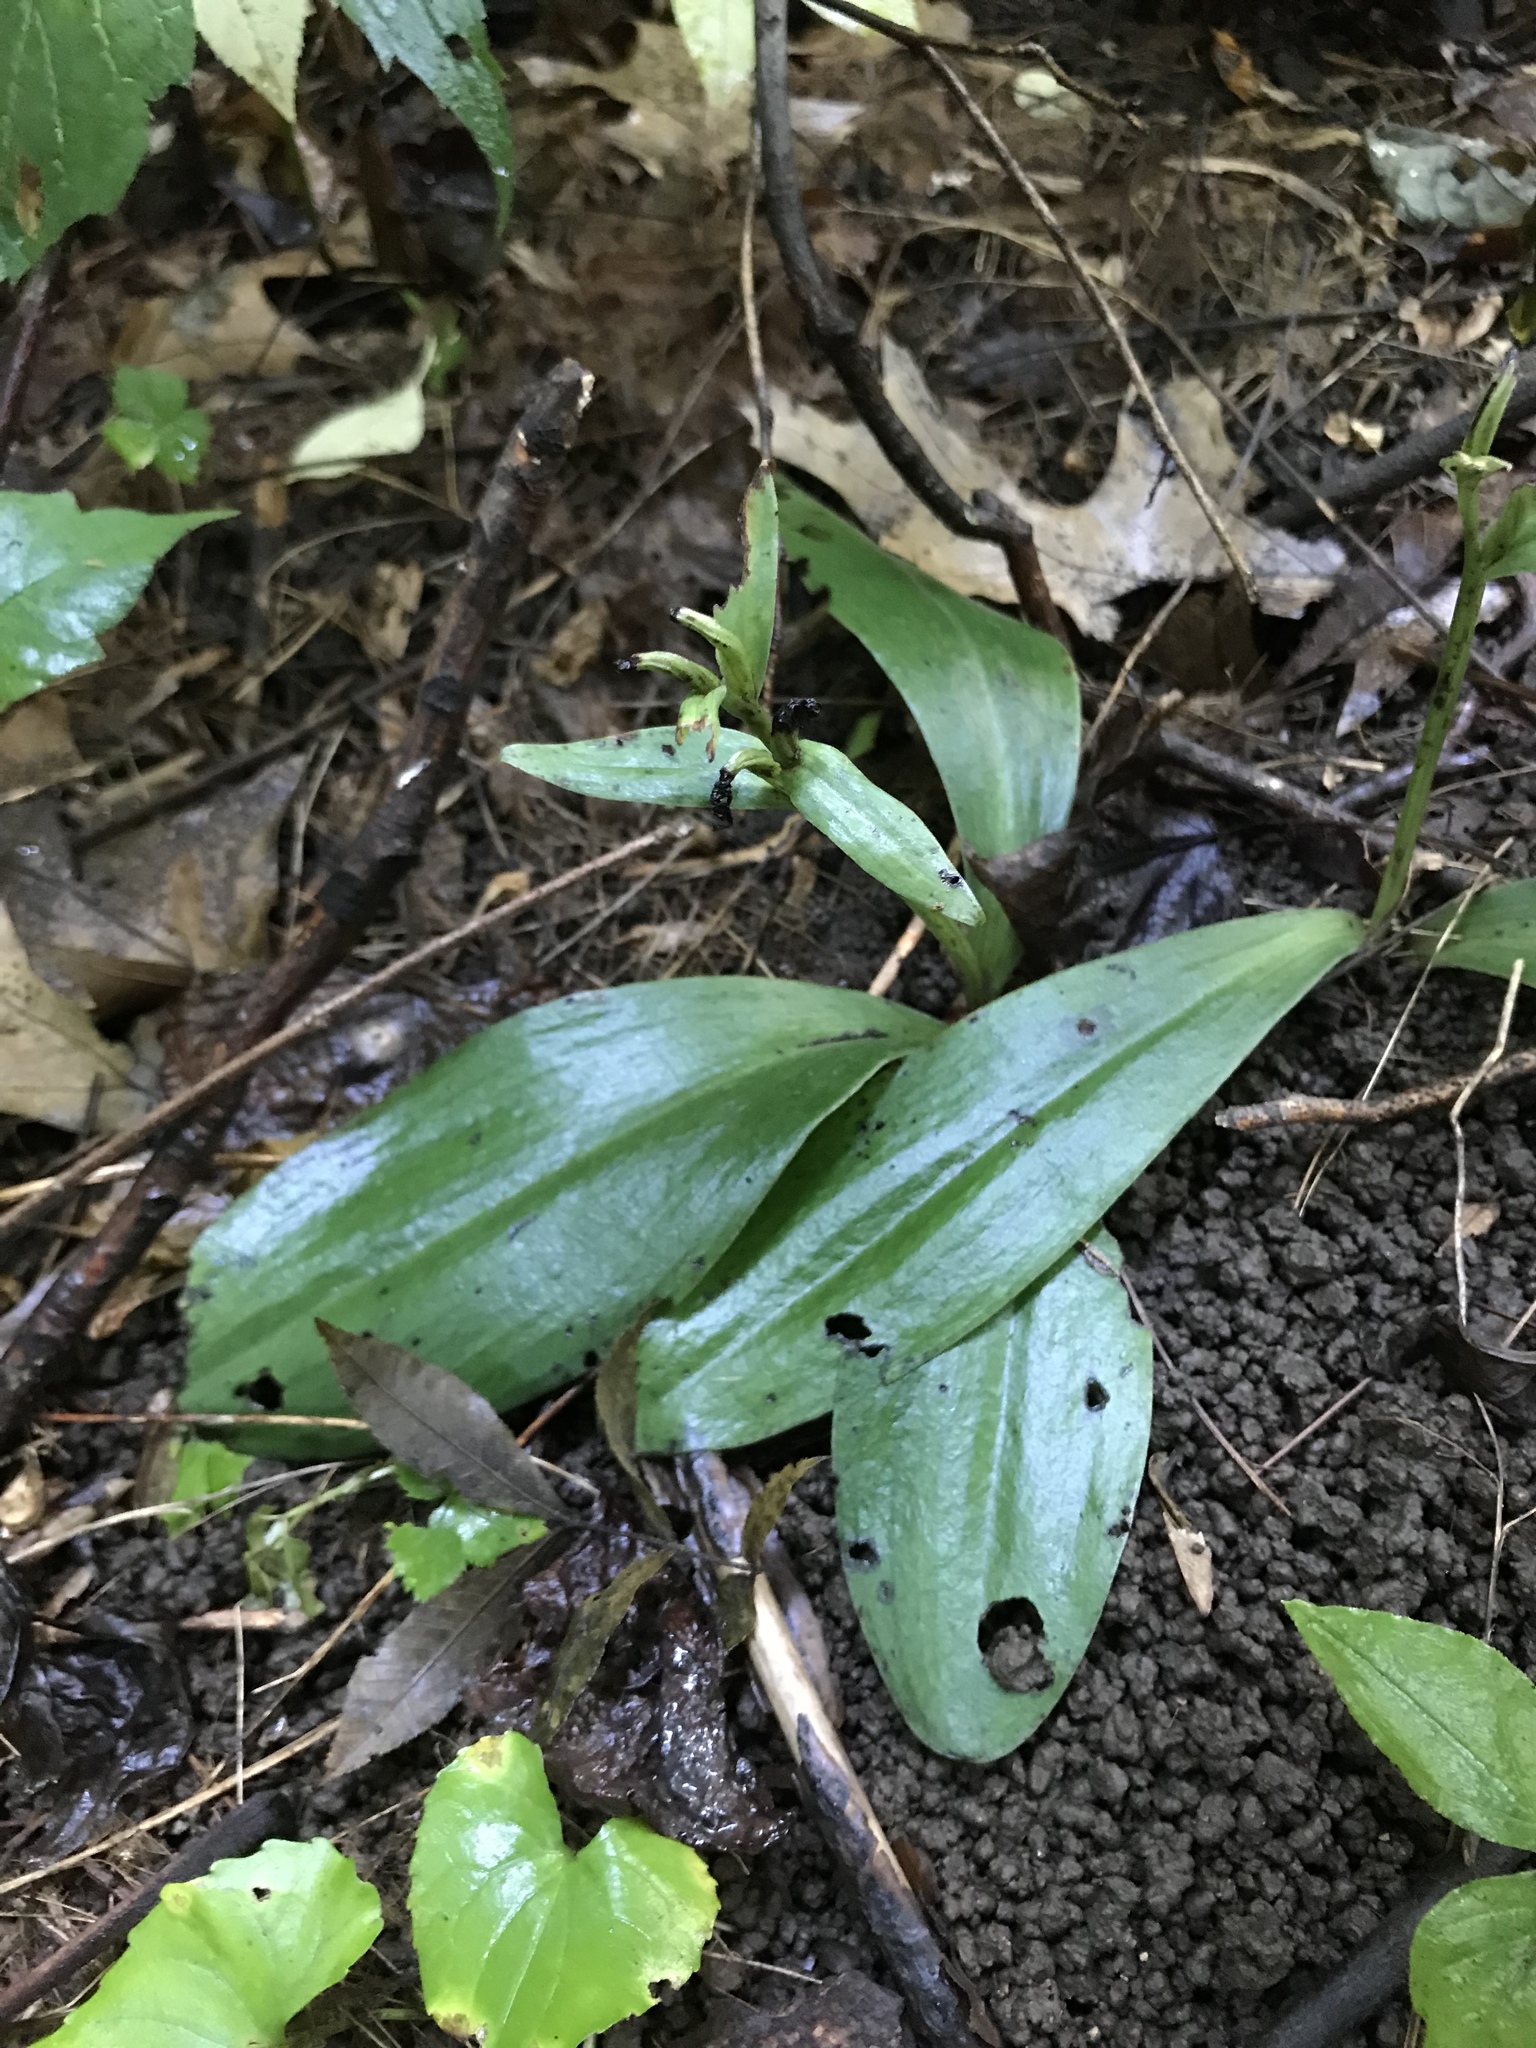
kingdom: Plantae
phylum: Tracheophyta
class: Liliopsida
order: Asparagales
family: Orchidaceae
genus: Galearis
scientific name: Galearis spectabilis
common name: Purple-hooded orchis
